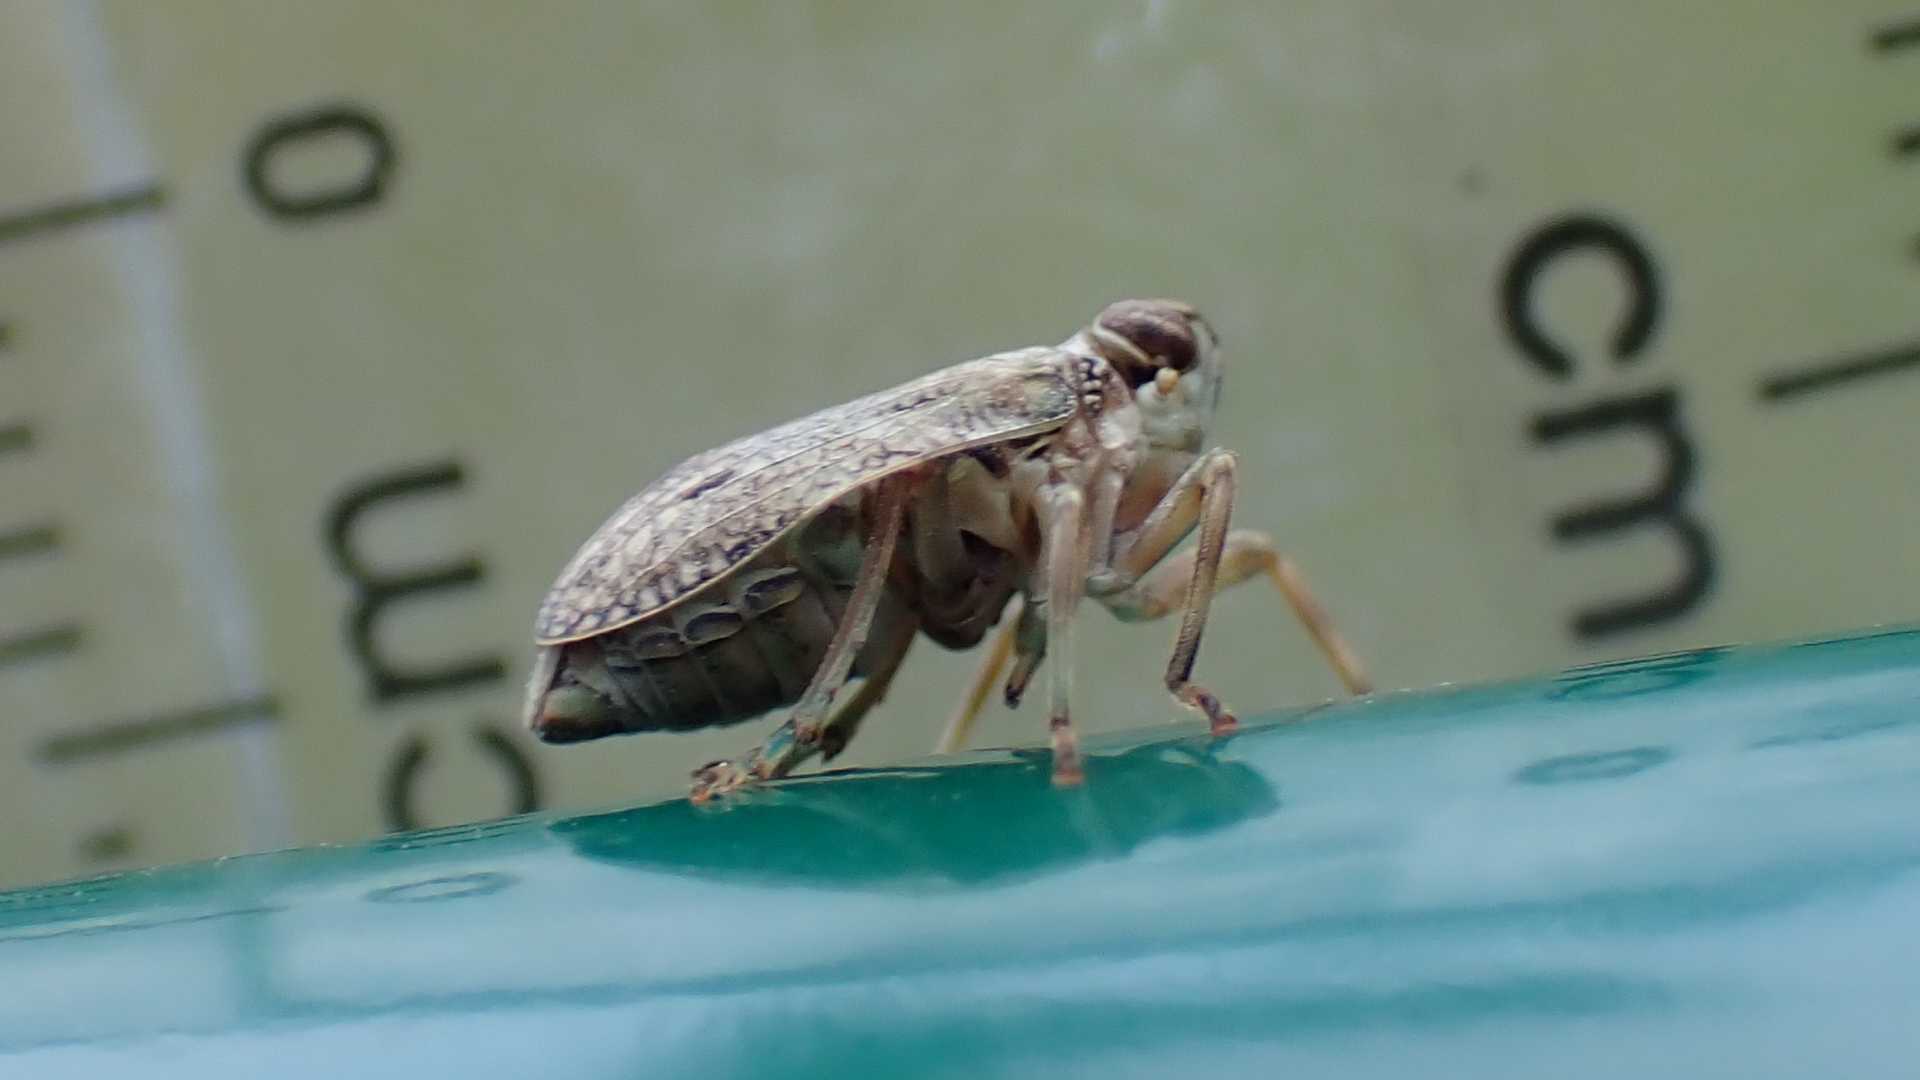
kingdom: Animalia
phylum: Arthropoda
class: Insecta
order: Hemiptera
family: Issidae
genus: Issus
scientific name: Issus coleoptratus
